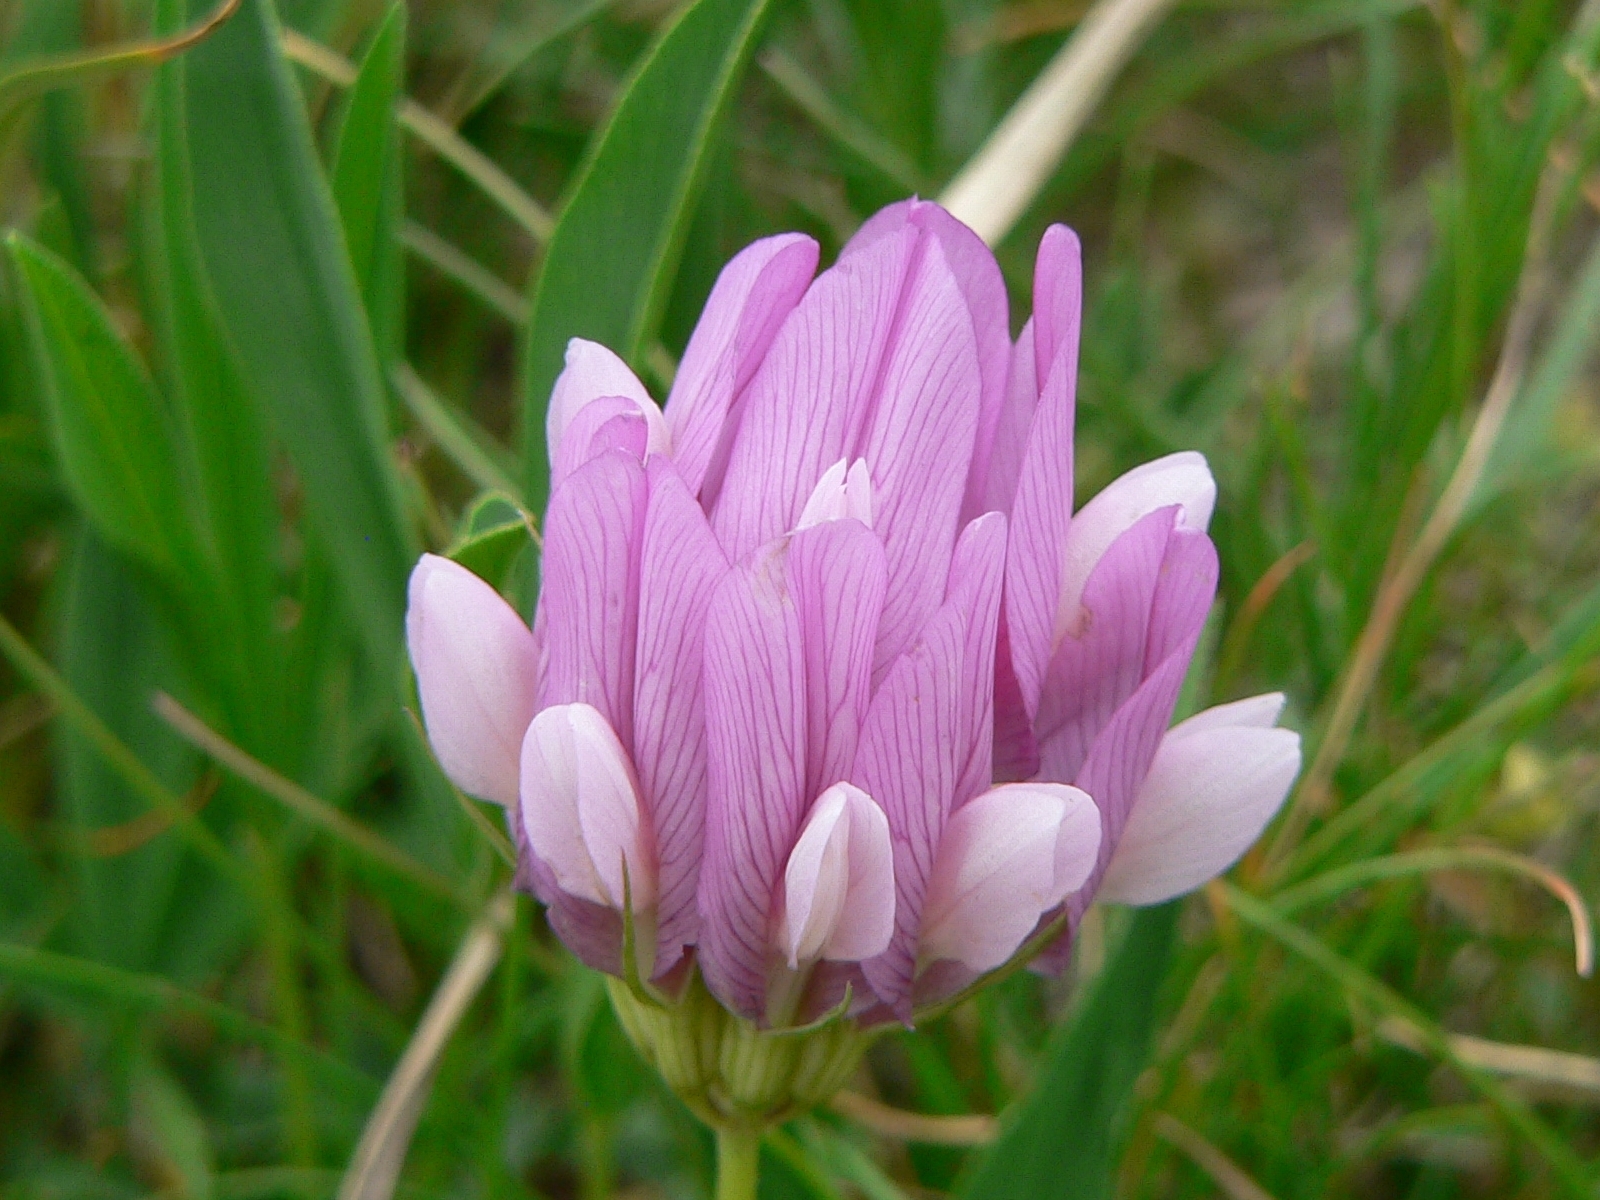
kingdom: Plantae
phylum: Tracheophyta
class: Magnoliopsida
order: Fabales
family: Fabaceae
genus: Trifolium
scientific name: Trifolium alpinum
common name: Alpine clover
